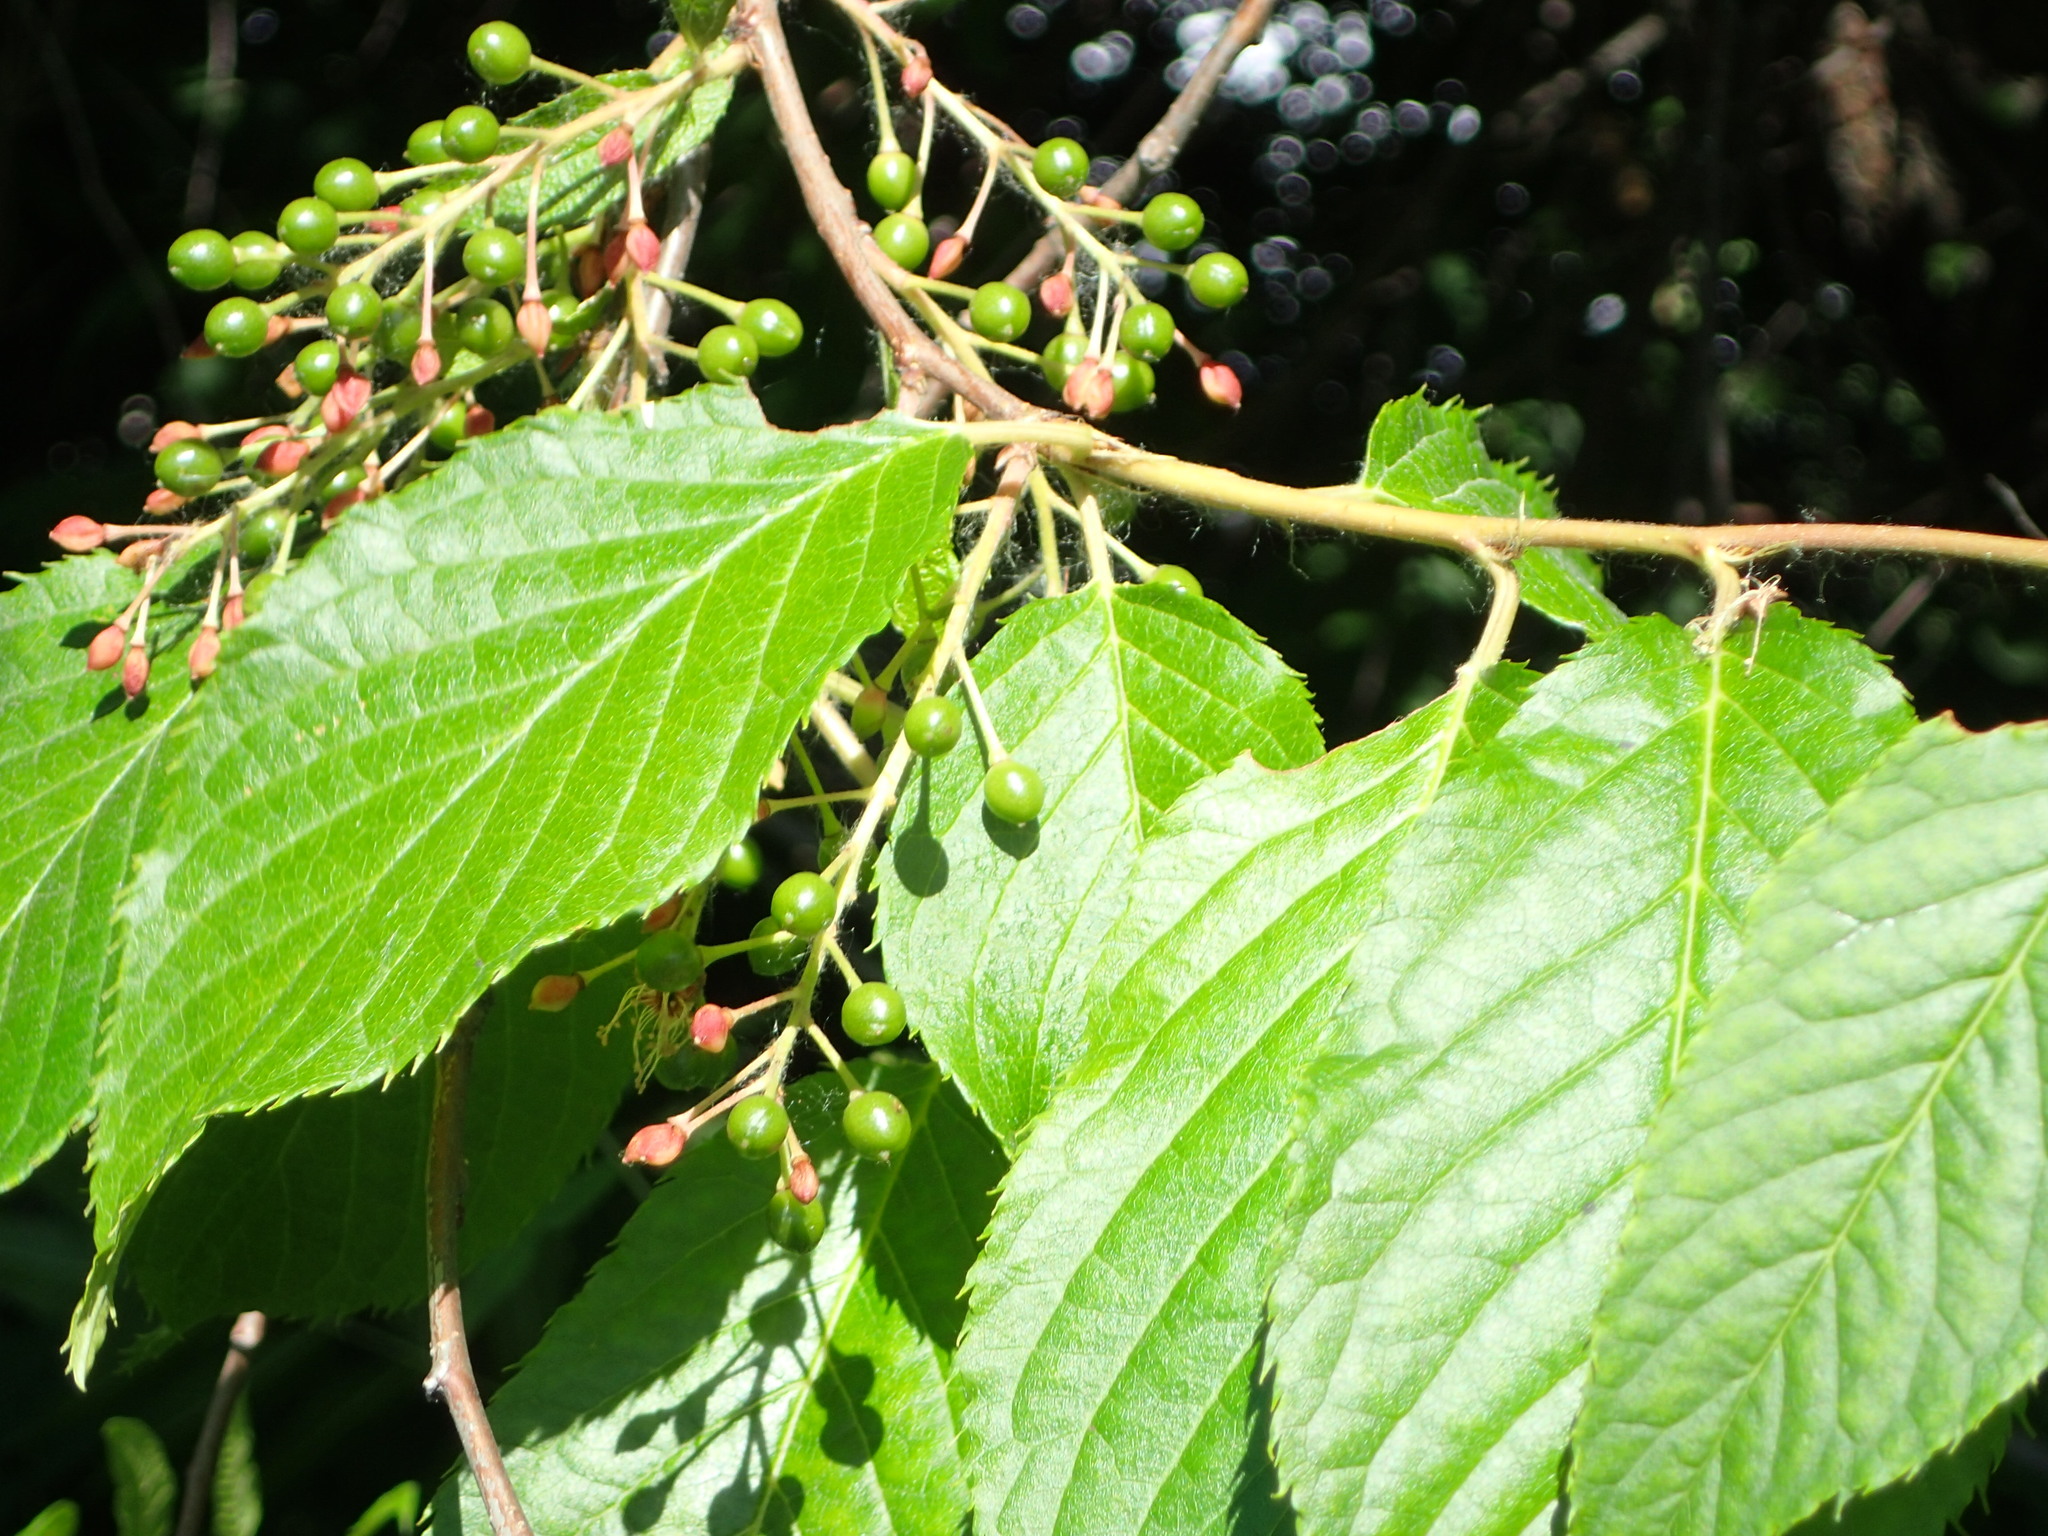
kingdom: Plantae
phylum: Tracheophyta
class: Magnoliopsida
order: Rosales
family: Rosaceae
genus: Prunus
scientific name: Prunus padus
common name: Bird cherry
